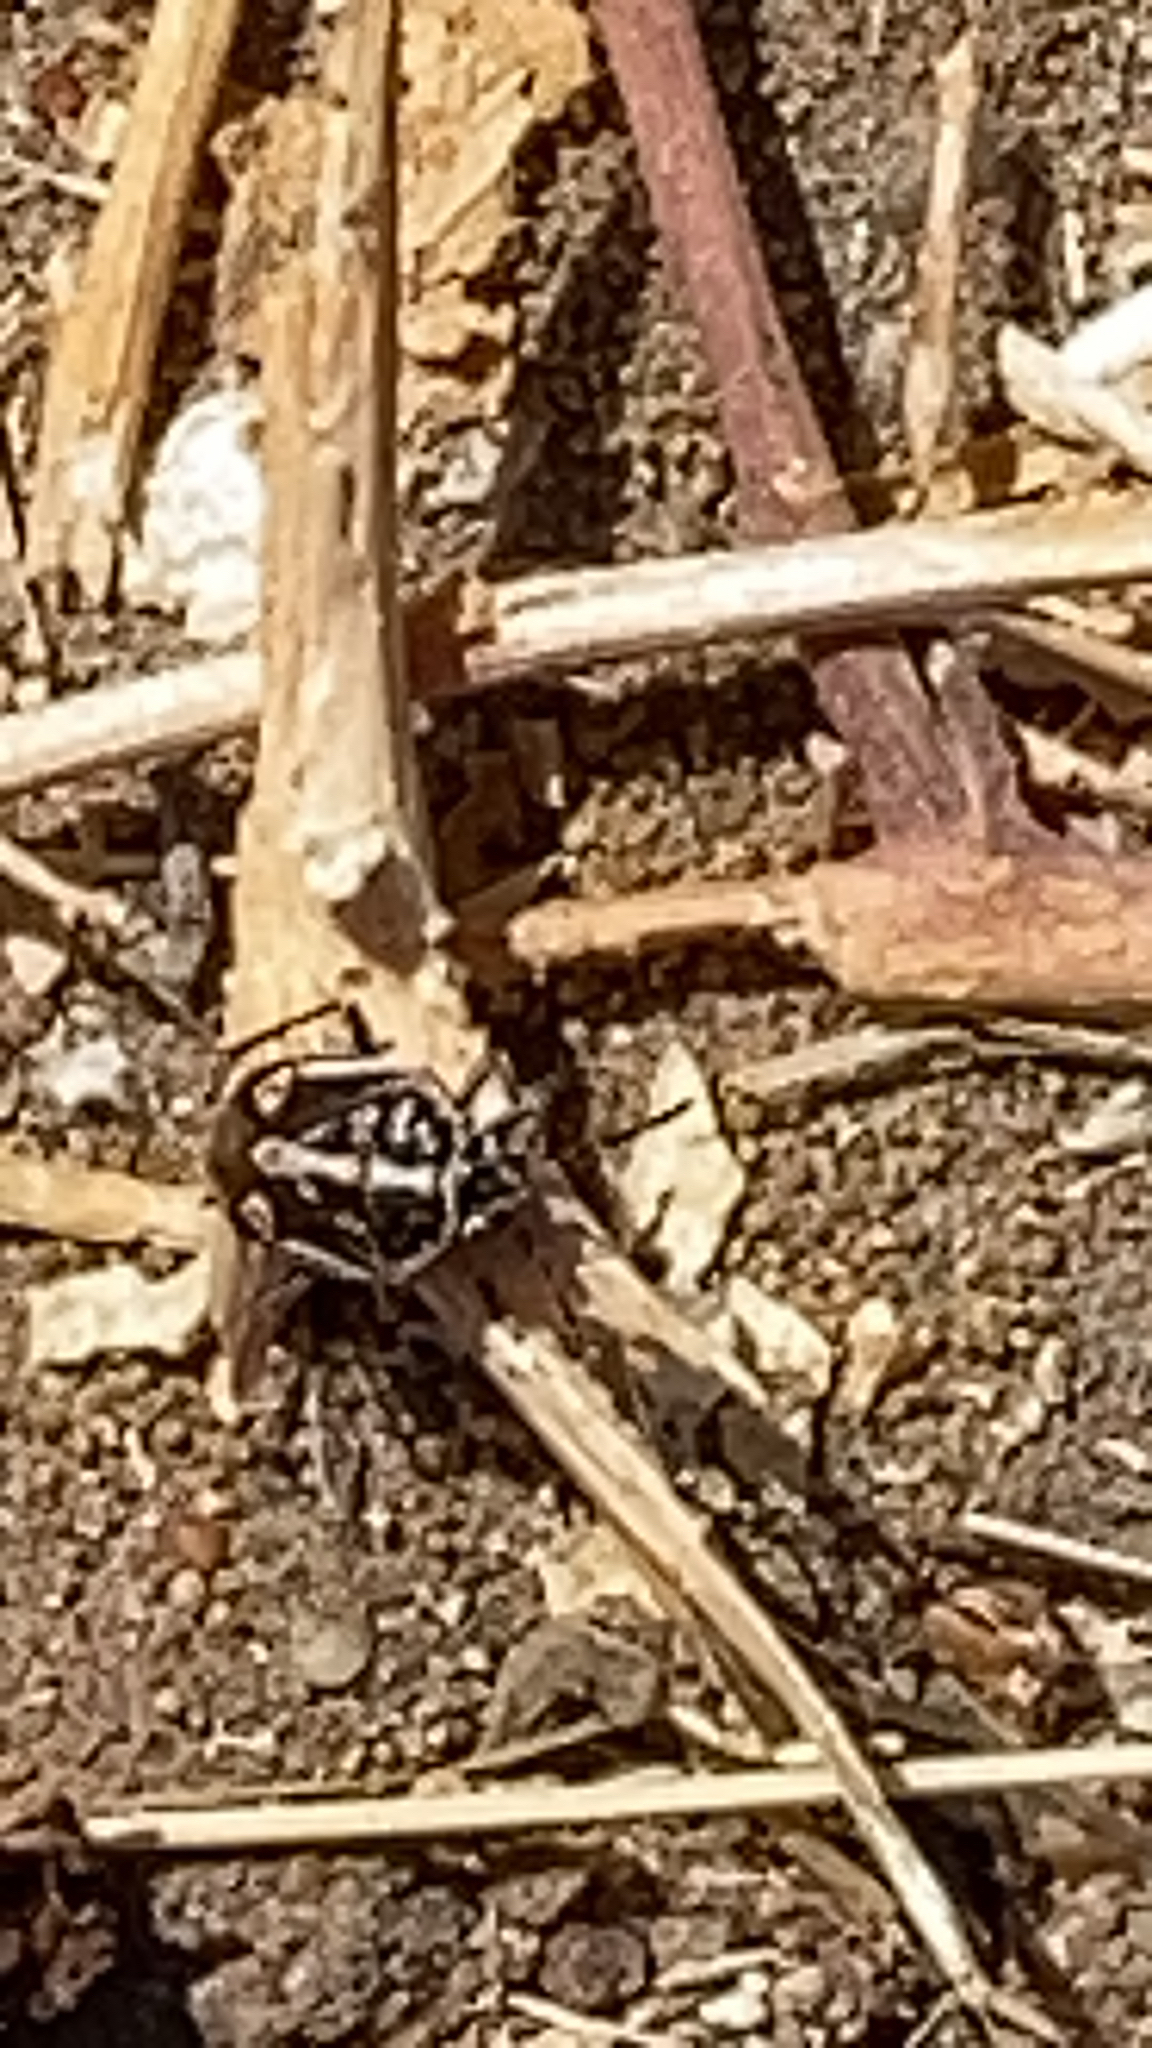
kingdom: Animalia
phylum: Arthropoda
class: Insecta
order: Hemiptera
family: Pentatomidae
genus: Bagrada
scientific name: Bagrada hilaris
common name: Bagrada bug
